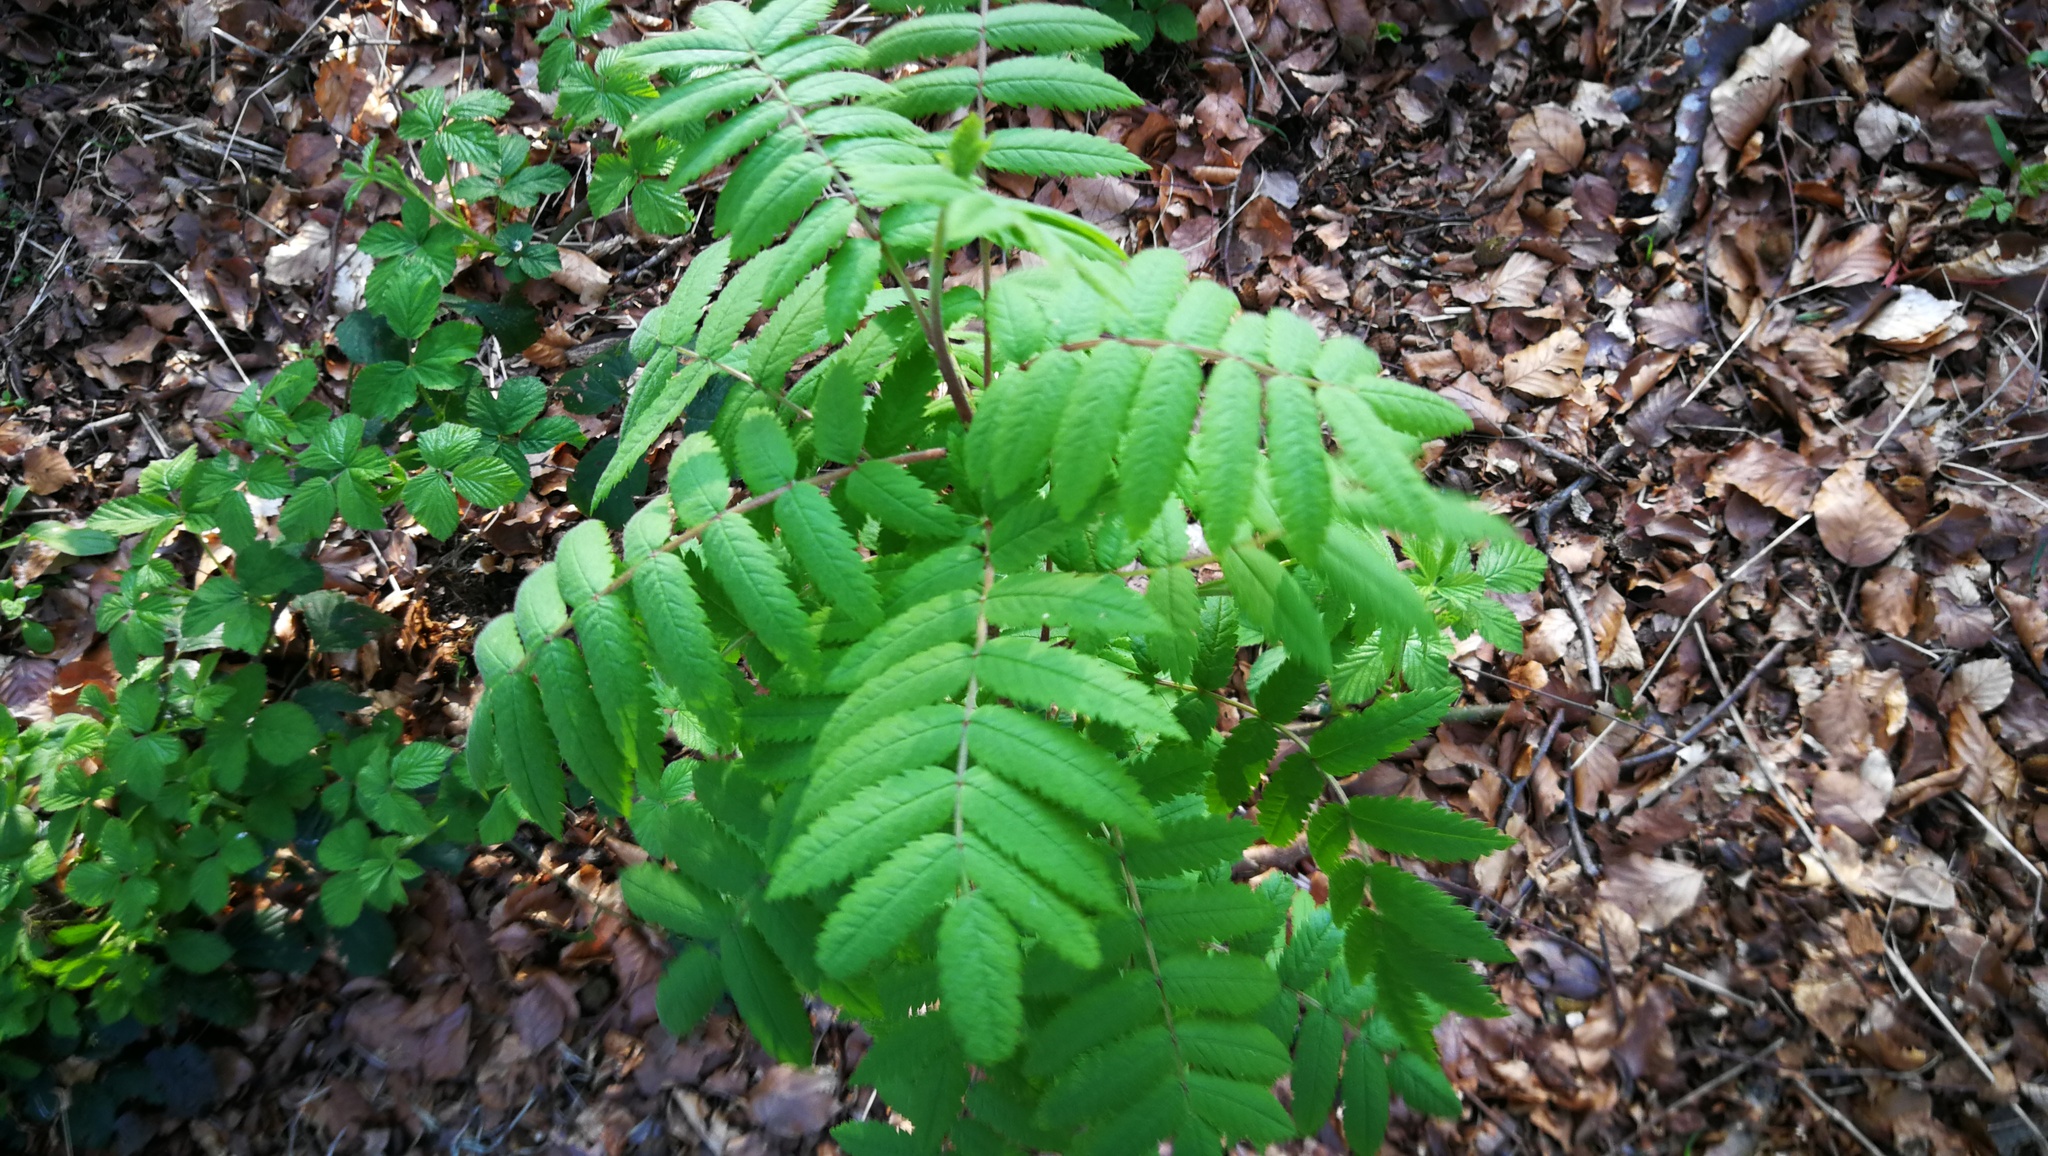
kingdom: Plantae
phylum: Tracheophyta
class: Magnoliopsida
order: Rosales
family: Rosaceae
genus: Sorbus
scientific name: Sorbus aucuparia
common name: Rowan
